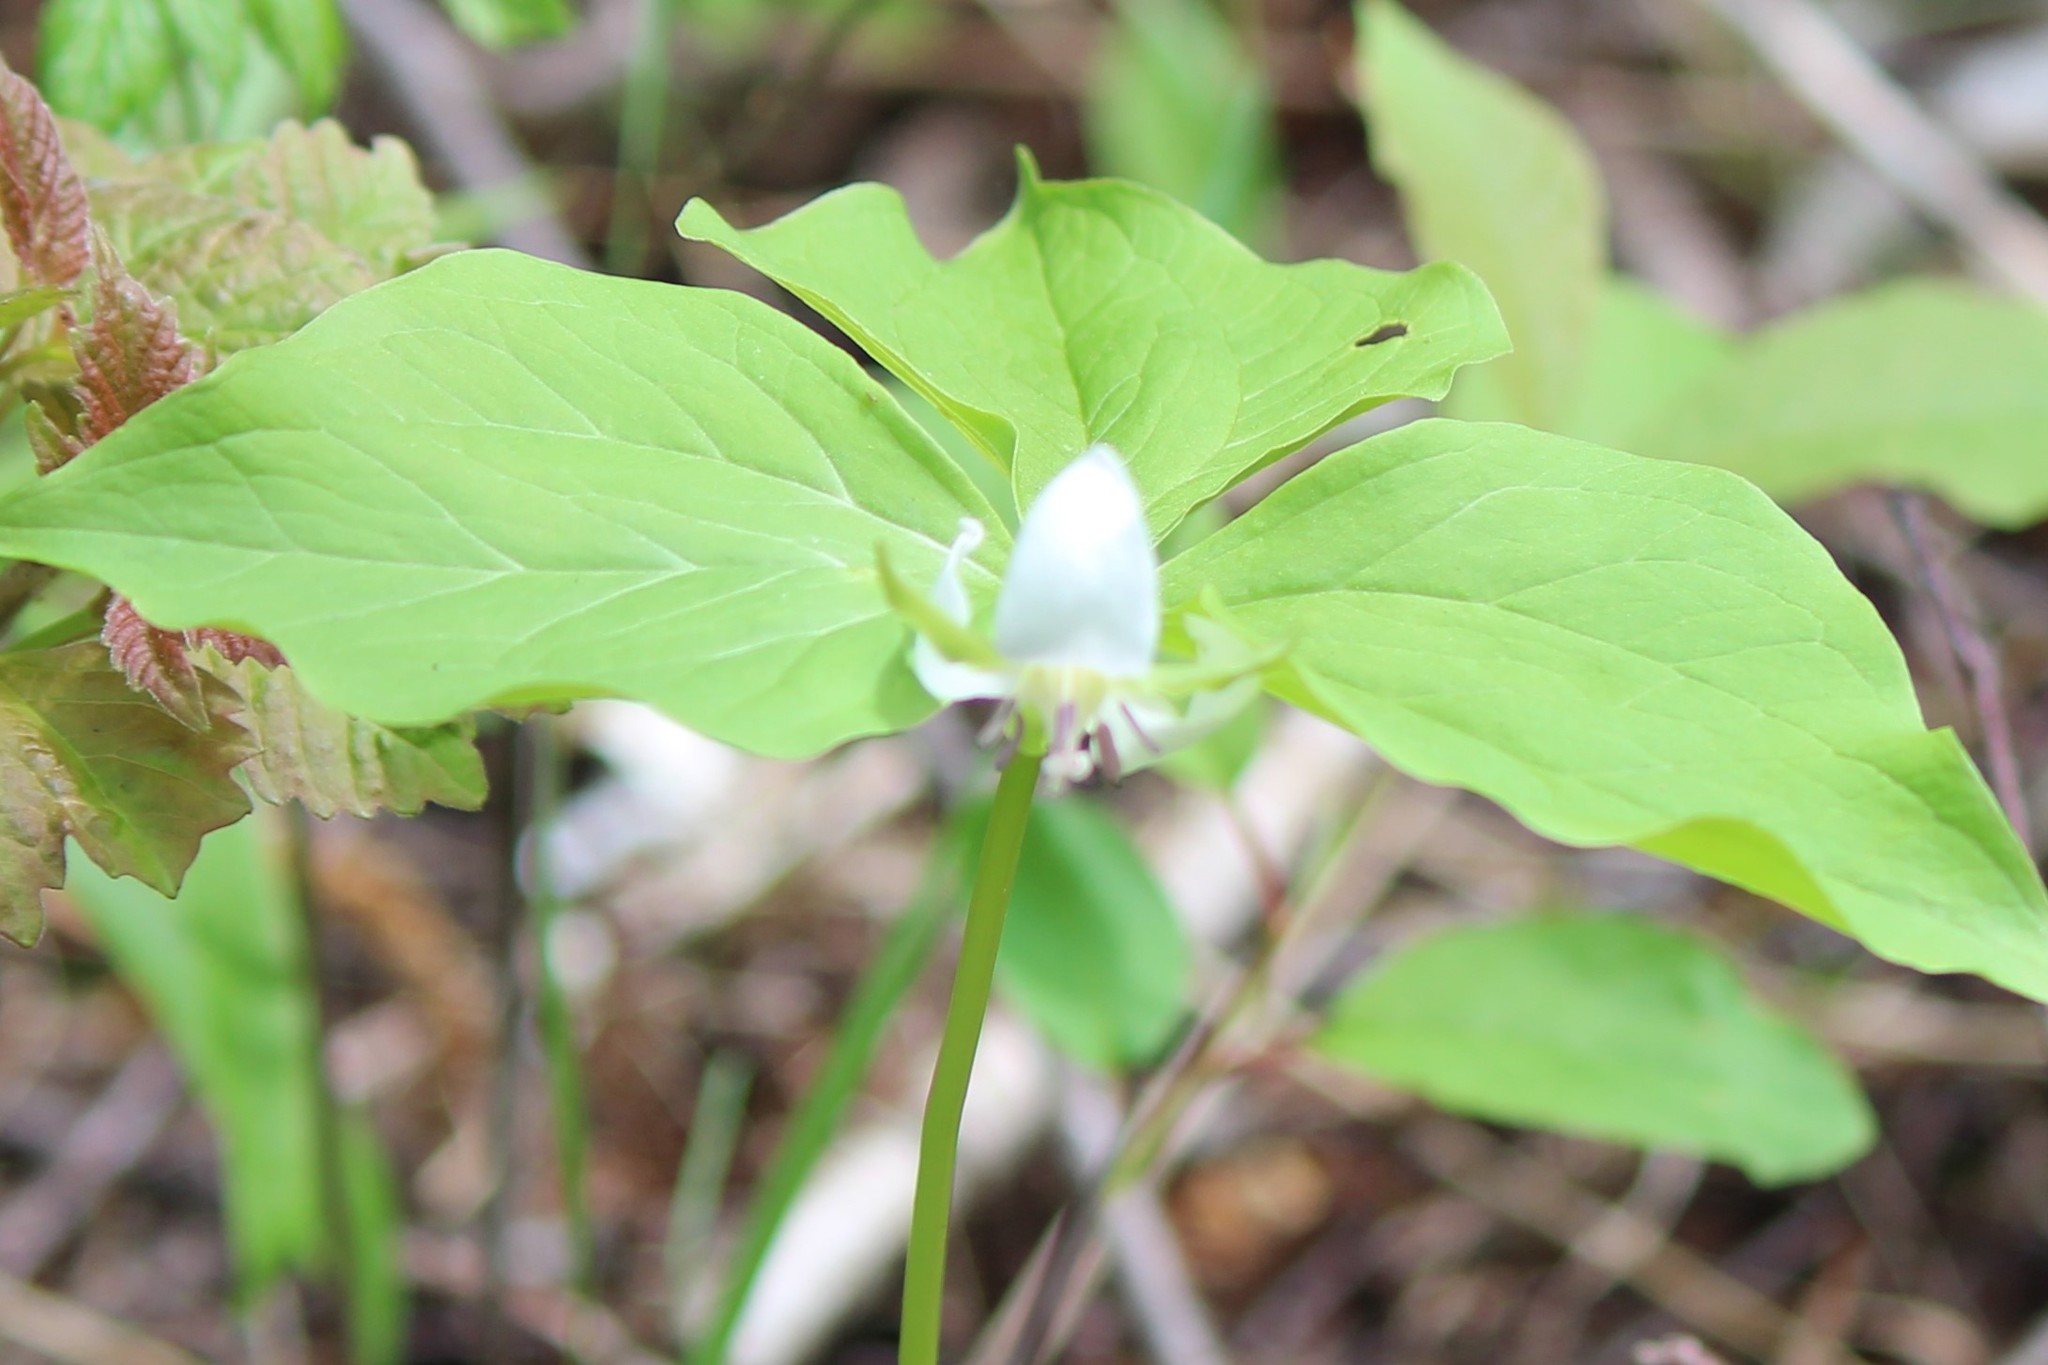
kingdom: Plantae
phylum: Tracheophyta
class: Liliopsida
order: Liliales
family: Melanthiaceae
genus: Trillium
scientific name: Trillium cernuum
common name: Nodding trillium
